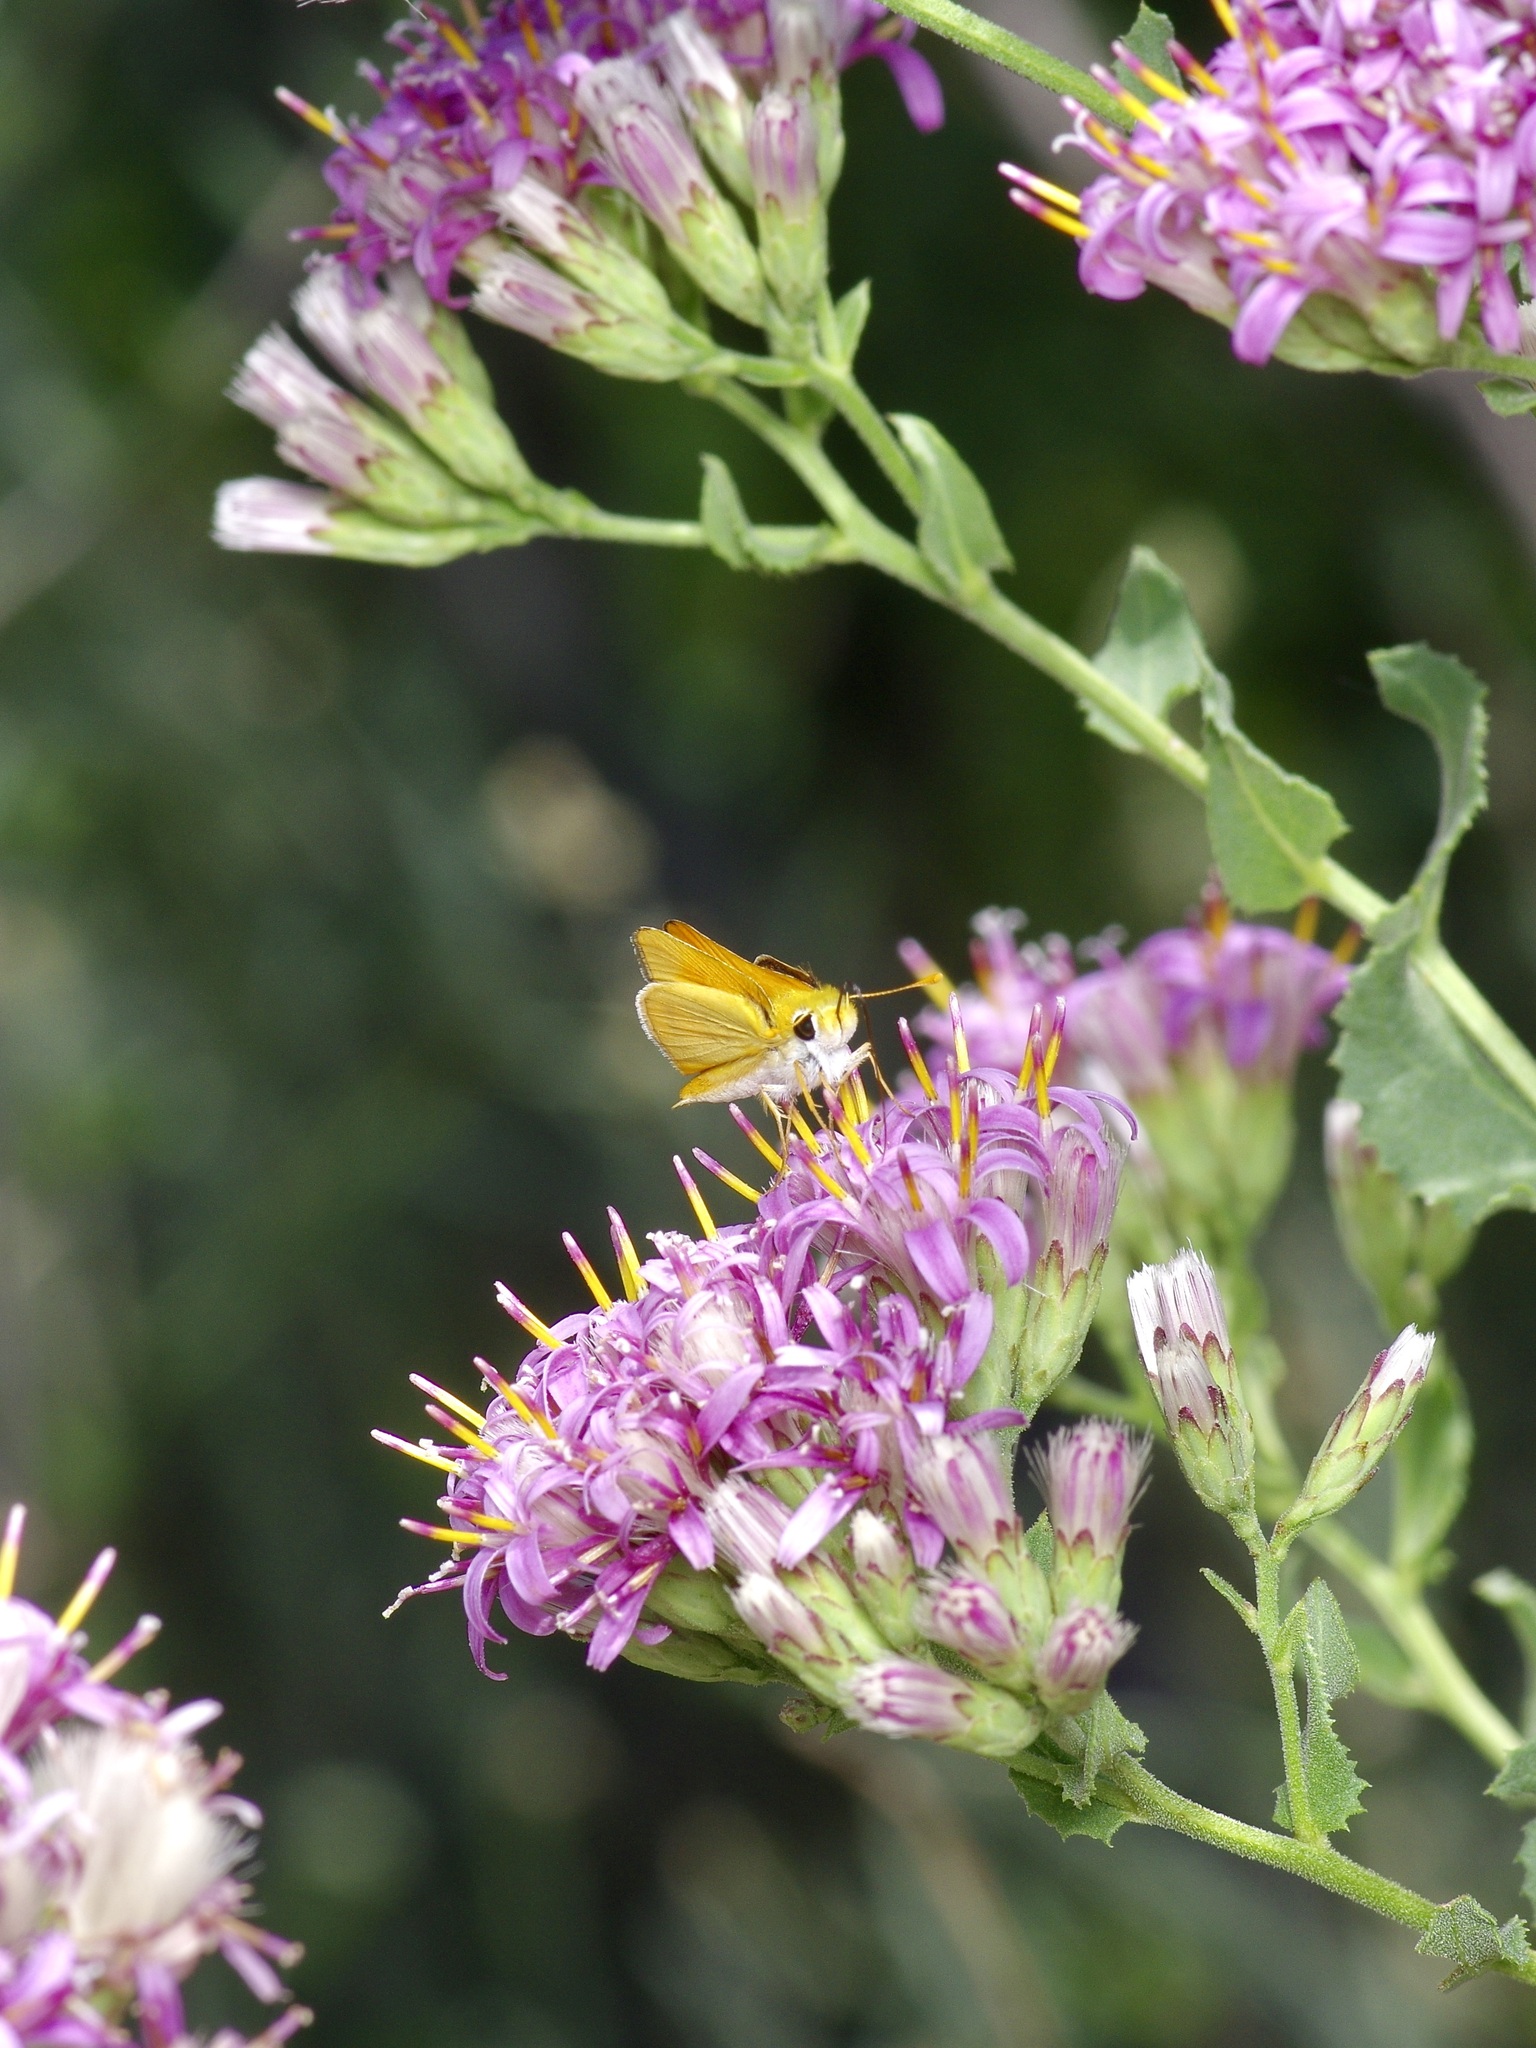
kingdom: Animalia
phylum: Arthropoda
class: Insecta
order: Lepidoptera
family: Hesperiidae
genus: Copaeodes
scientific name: Copaeodes aurantiaca
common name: Orange skipperling
